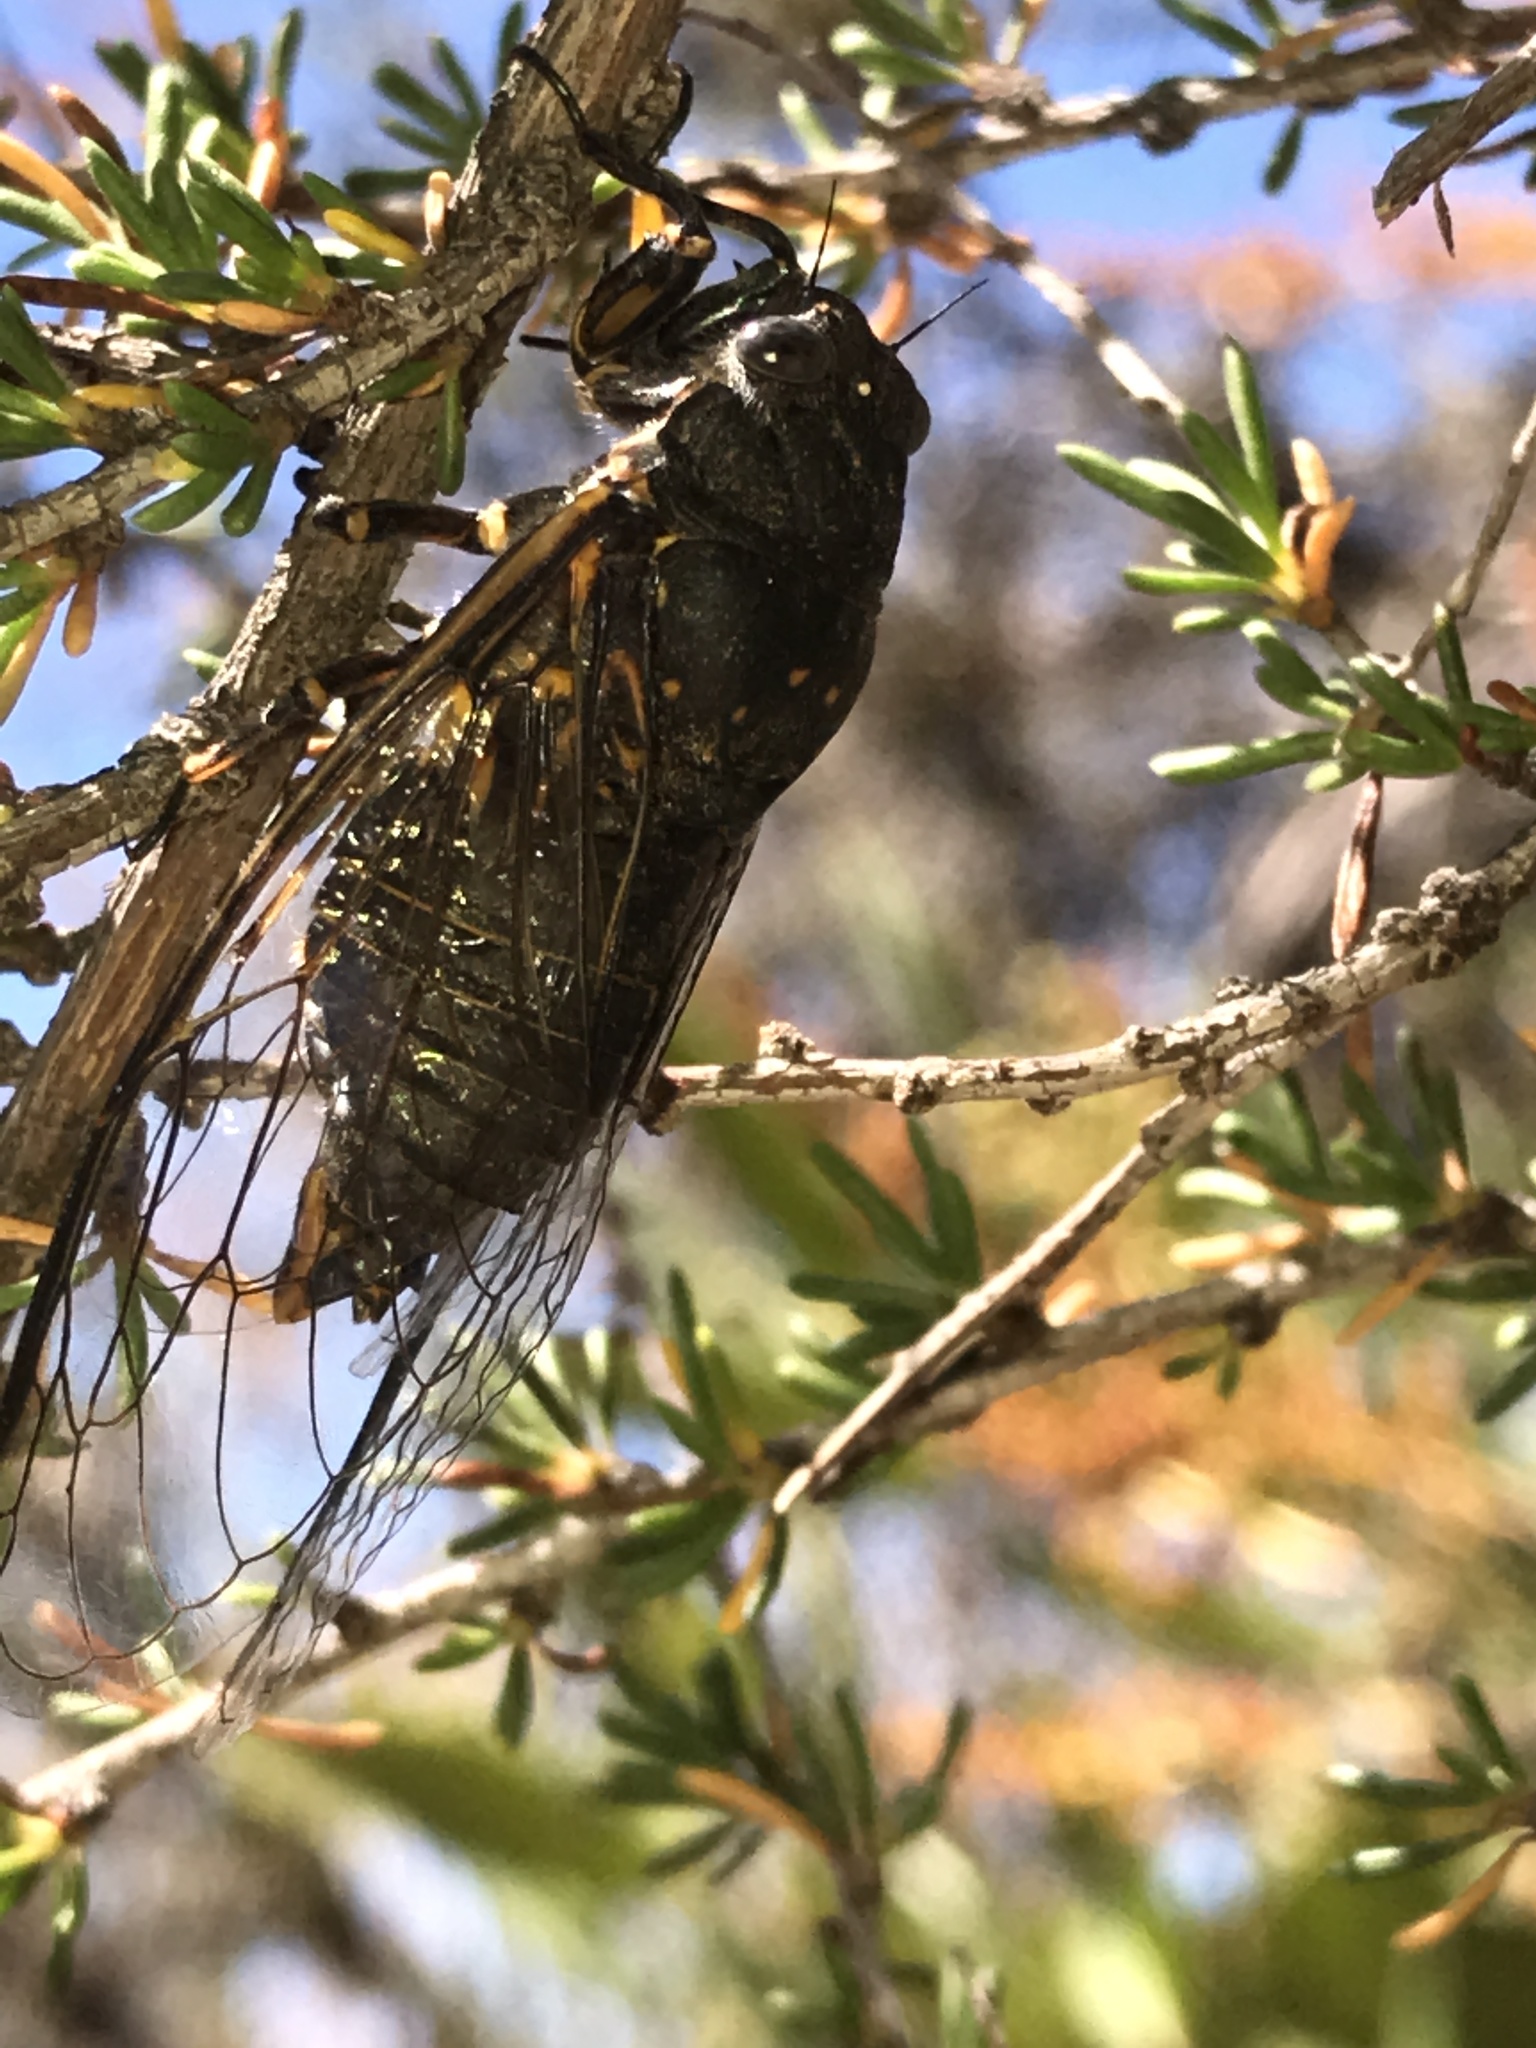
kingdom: Animalia
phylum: Arthropoda
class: Insecta
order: Hemiptera
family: Cicadidae
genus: Okanagana
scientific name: Okanagana tristis
